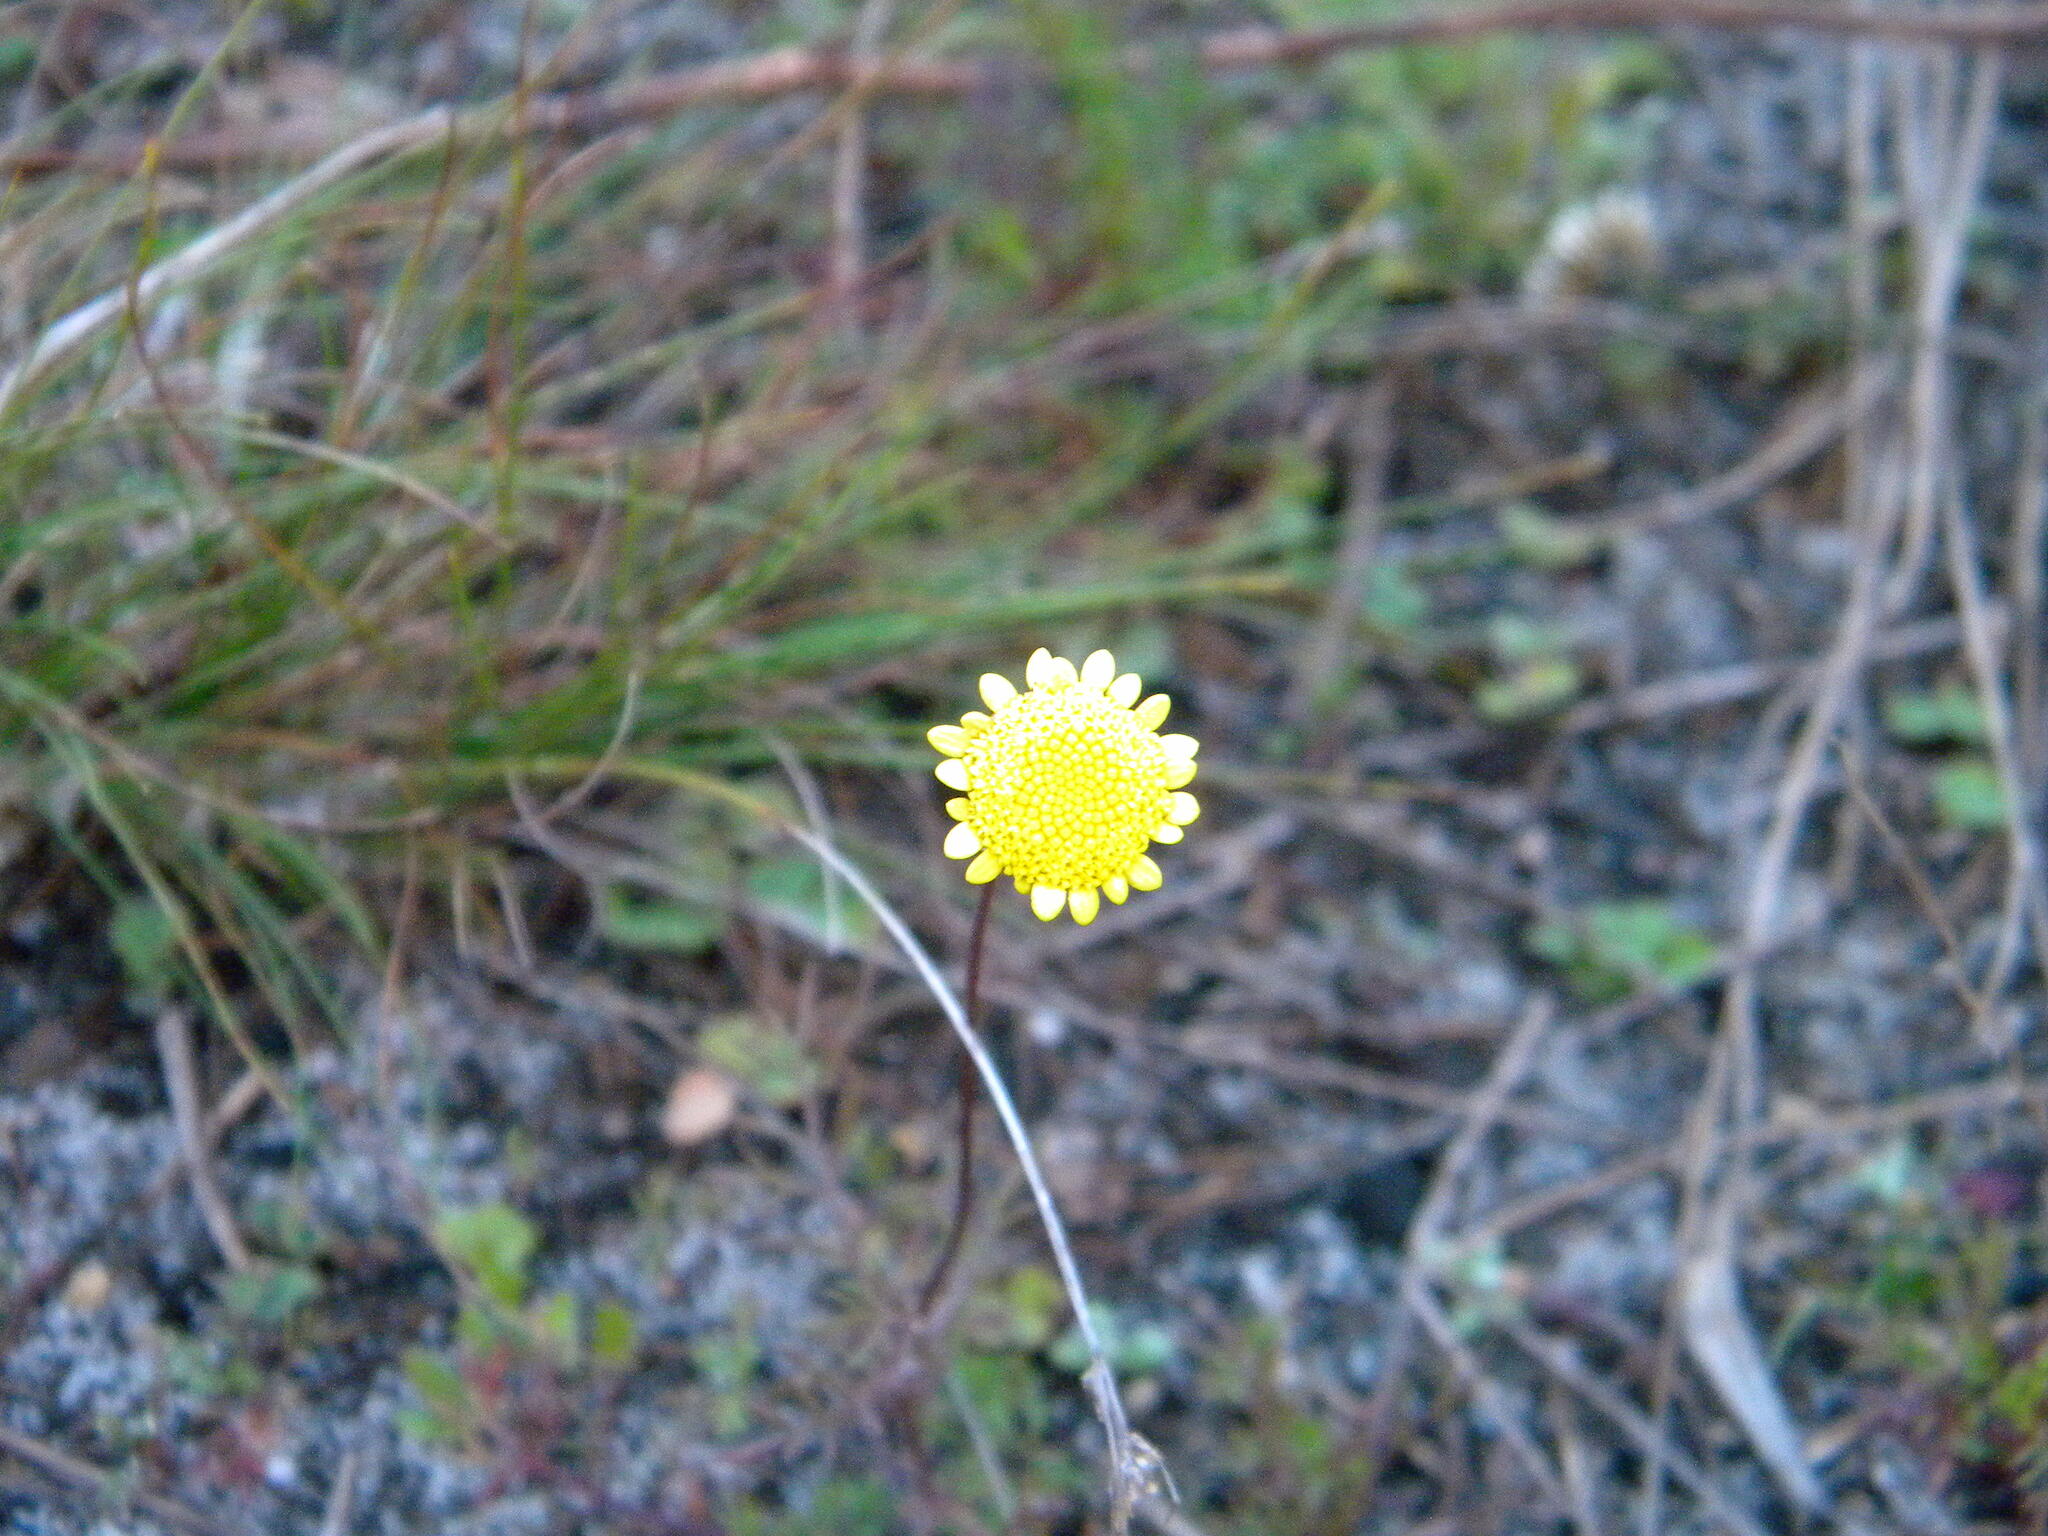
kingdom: Plantae
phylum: Tracheophyta
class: Magnoliopsida
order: Asterales
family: Asteraceae
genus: Cotula
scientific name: Cotula pruinosa
